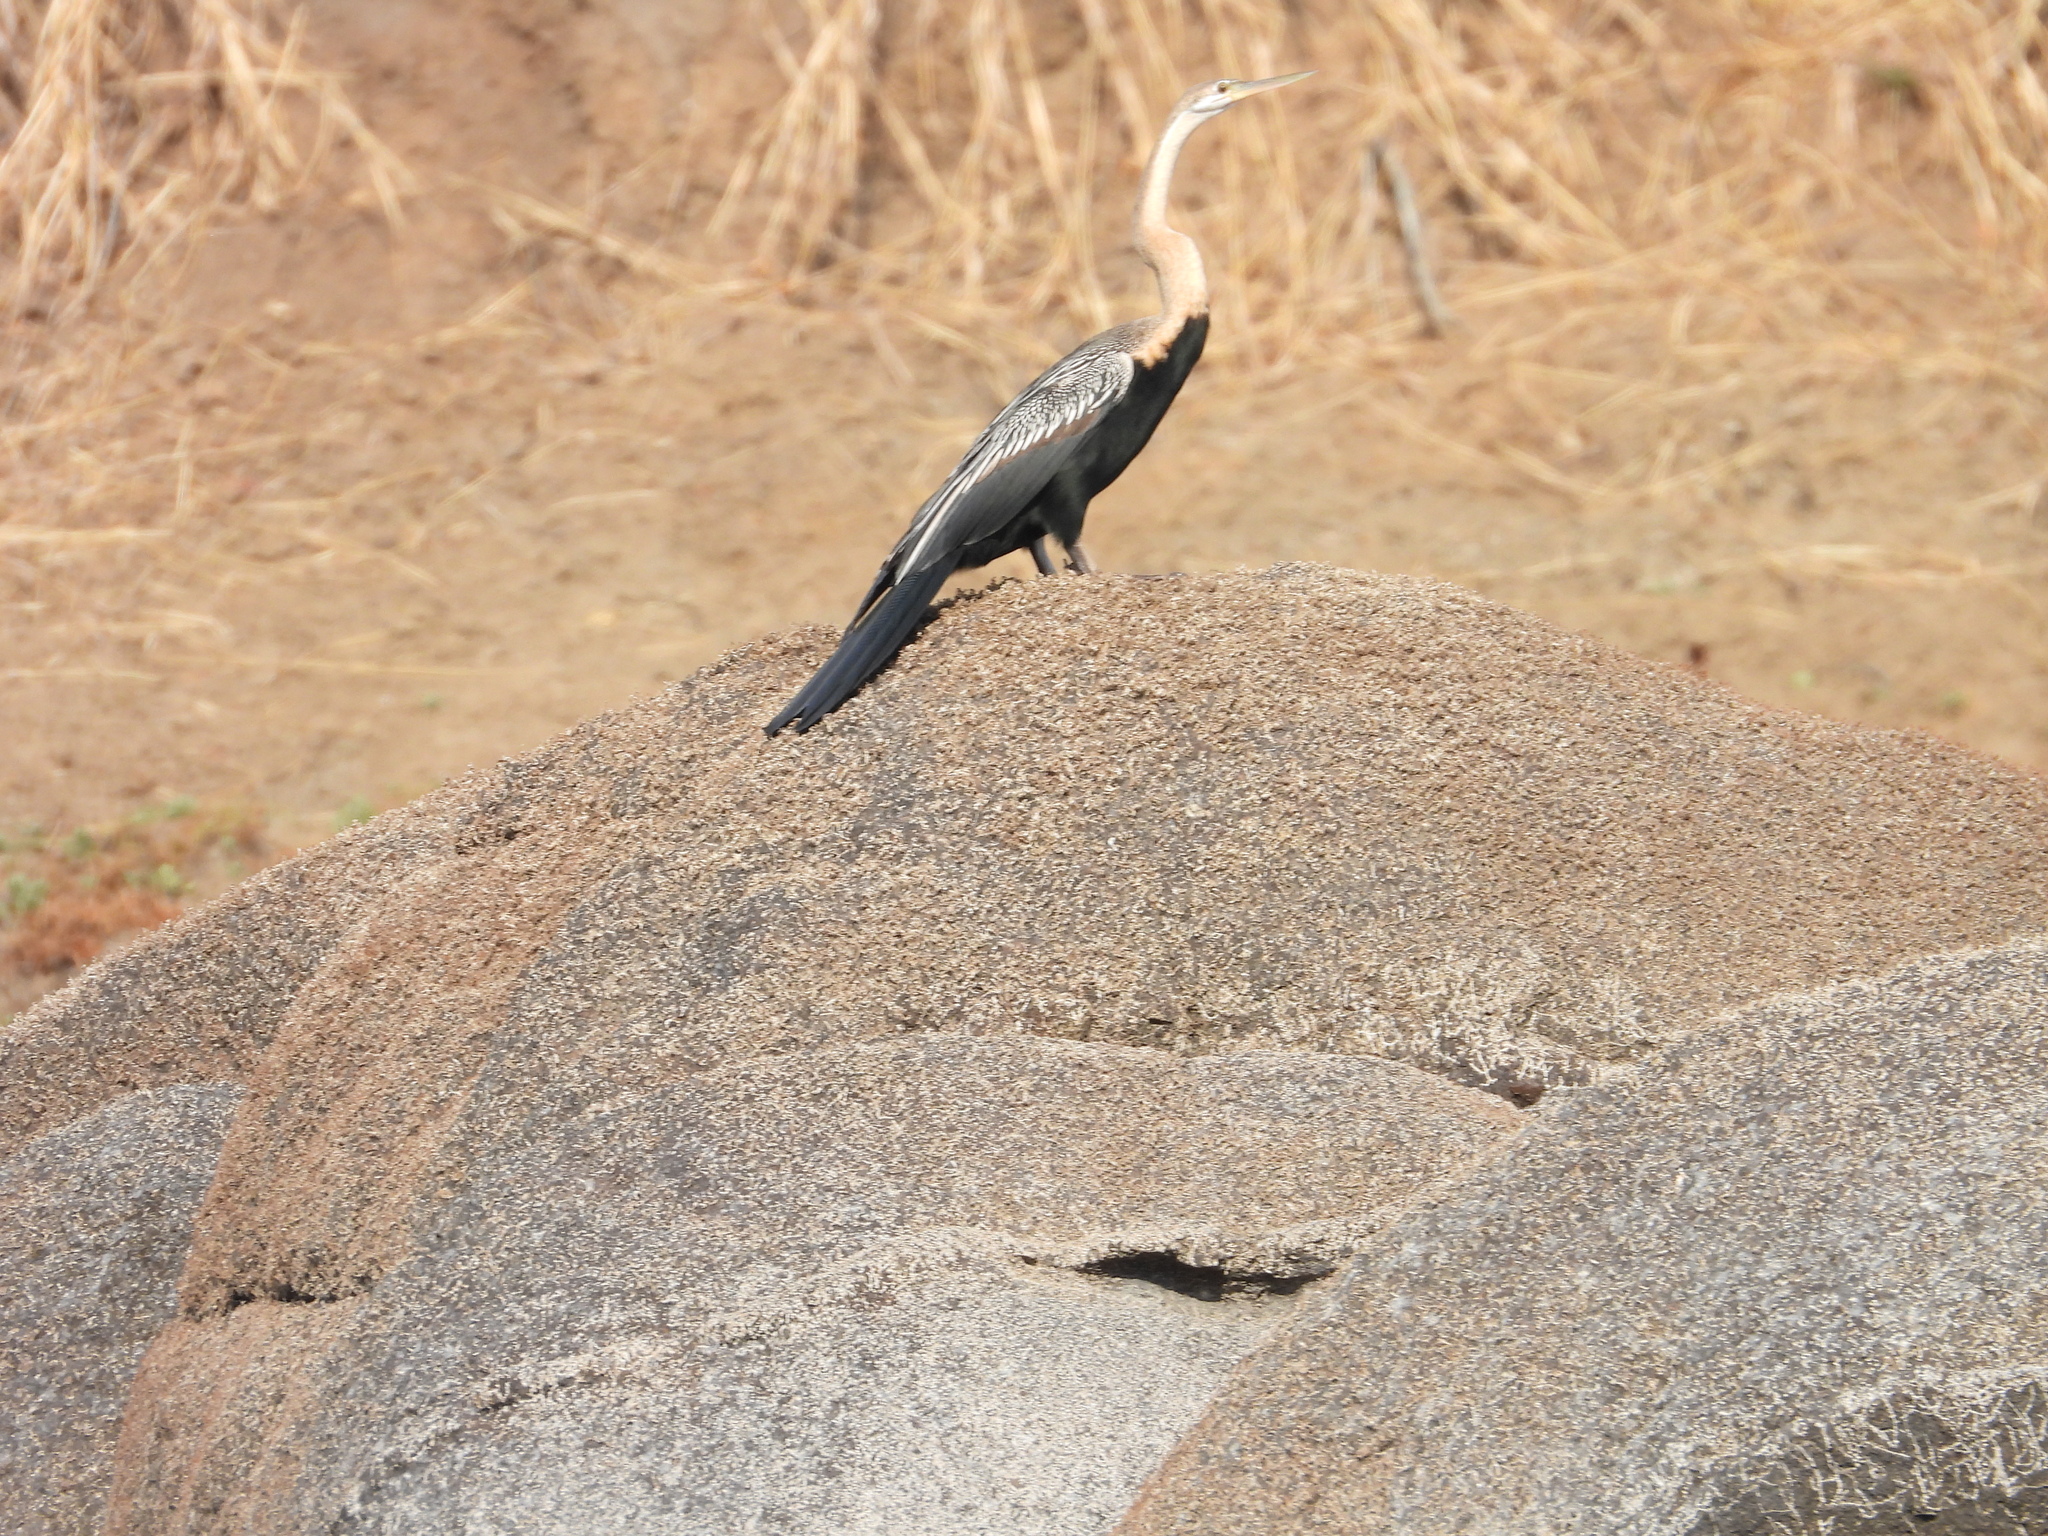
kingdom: Animalia
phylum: Chordata
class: Aves
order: Suliformes
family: Anhingidae
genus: Anhinga
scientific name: Anhinga rufa
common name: African darter
